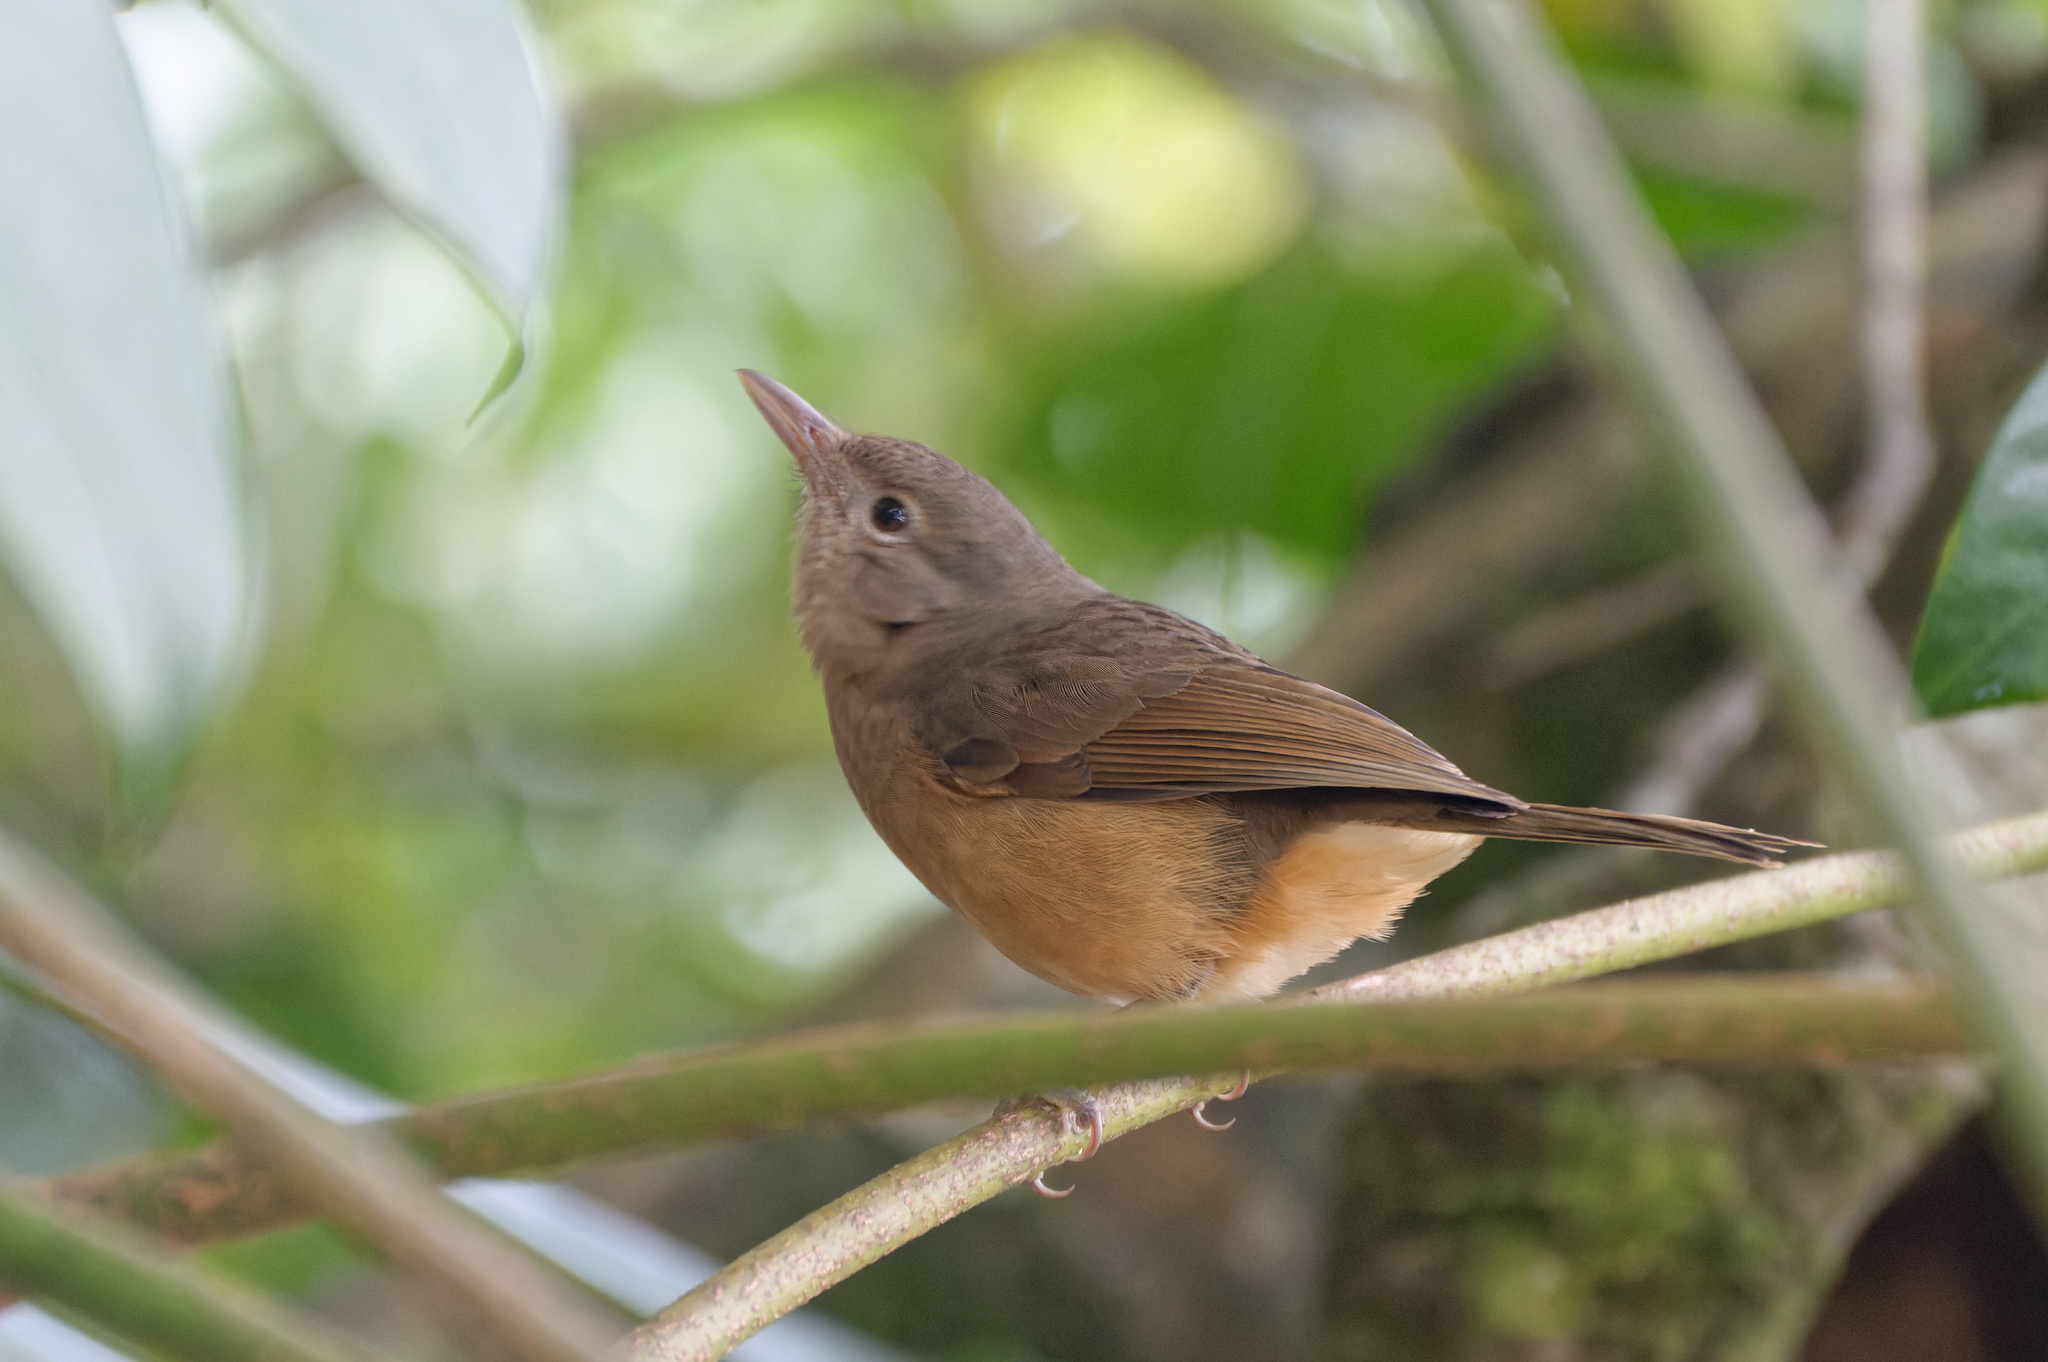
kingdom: Animalia
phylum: Chordata
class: Aves
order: Passeriformes
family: Pachycephalidae
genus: Colluricincla
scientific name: Colluricincla rufogaster
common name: Rufous shrikethrush
